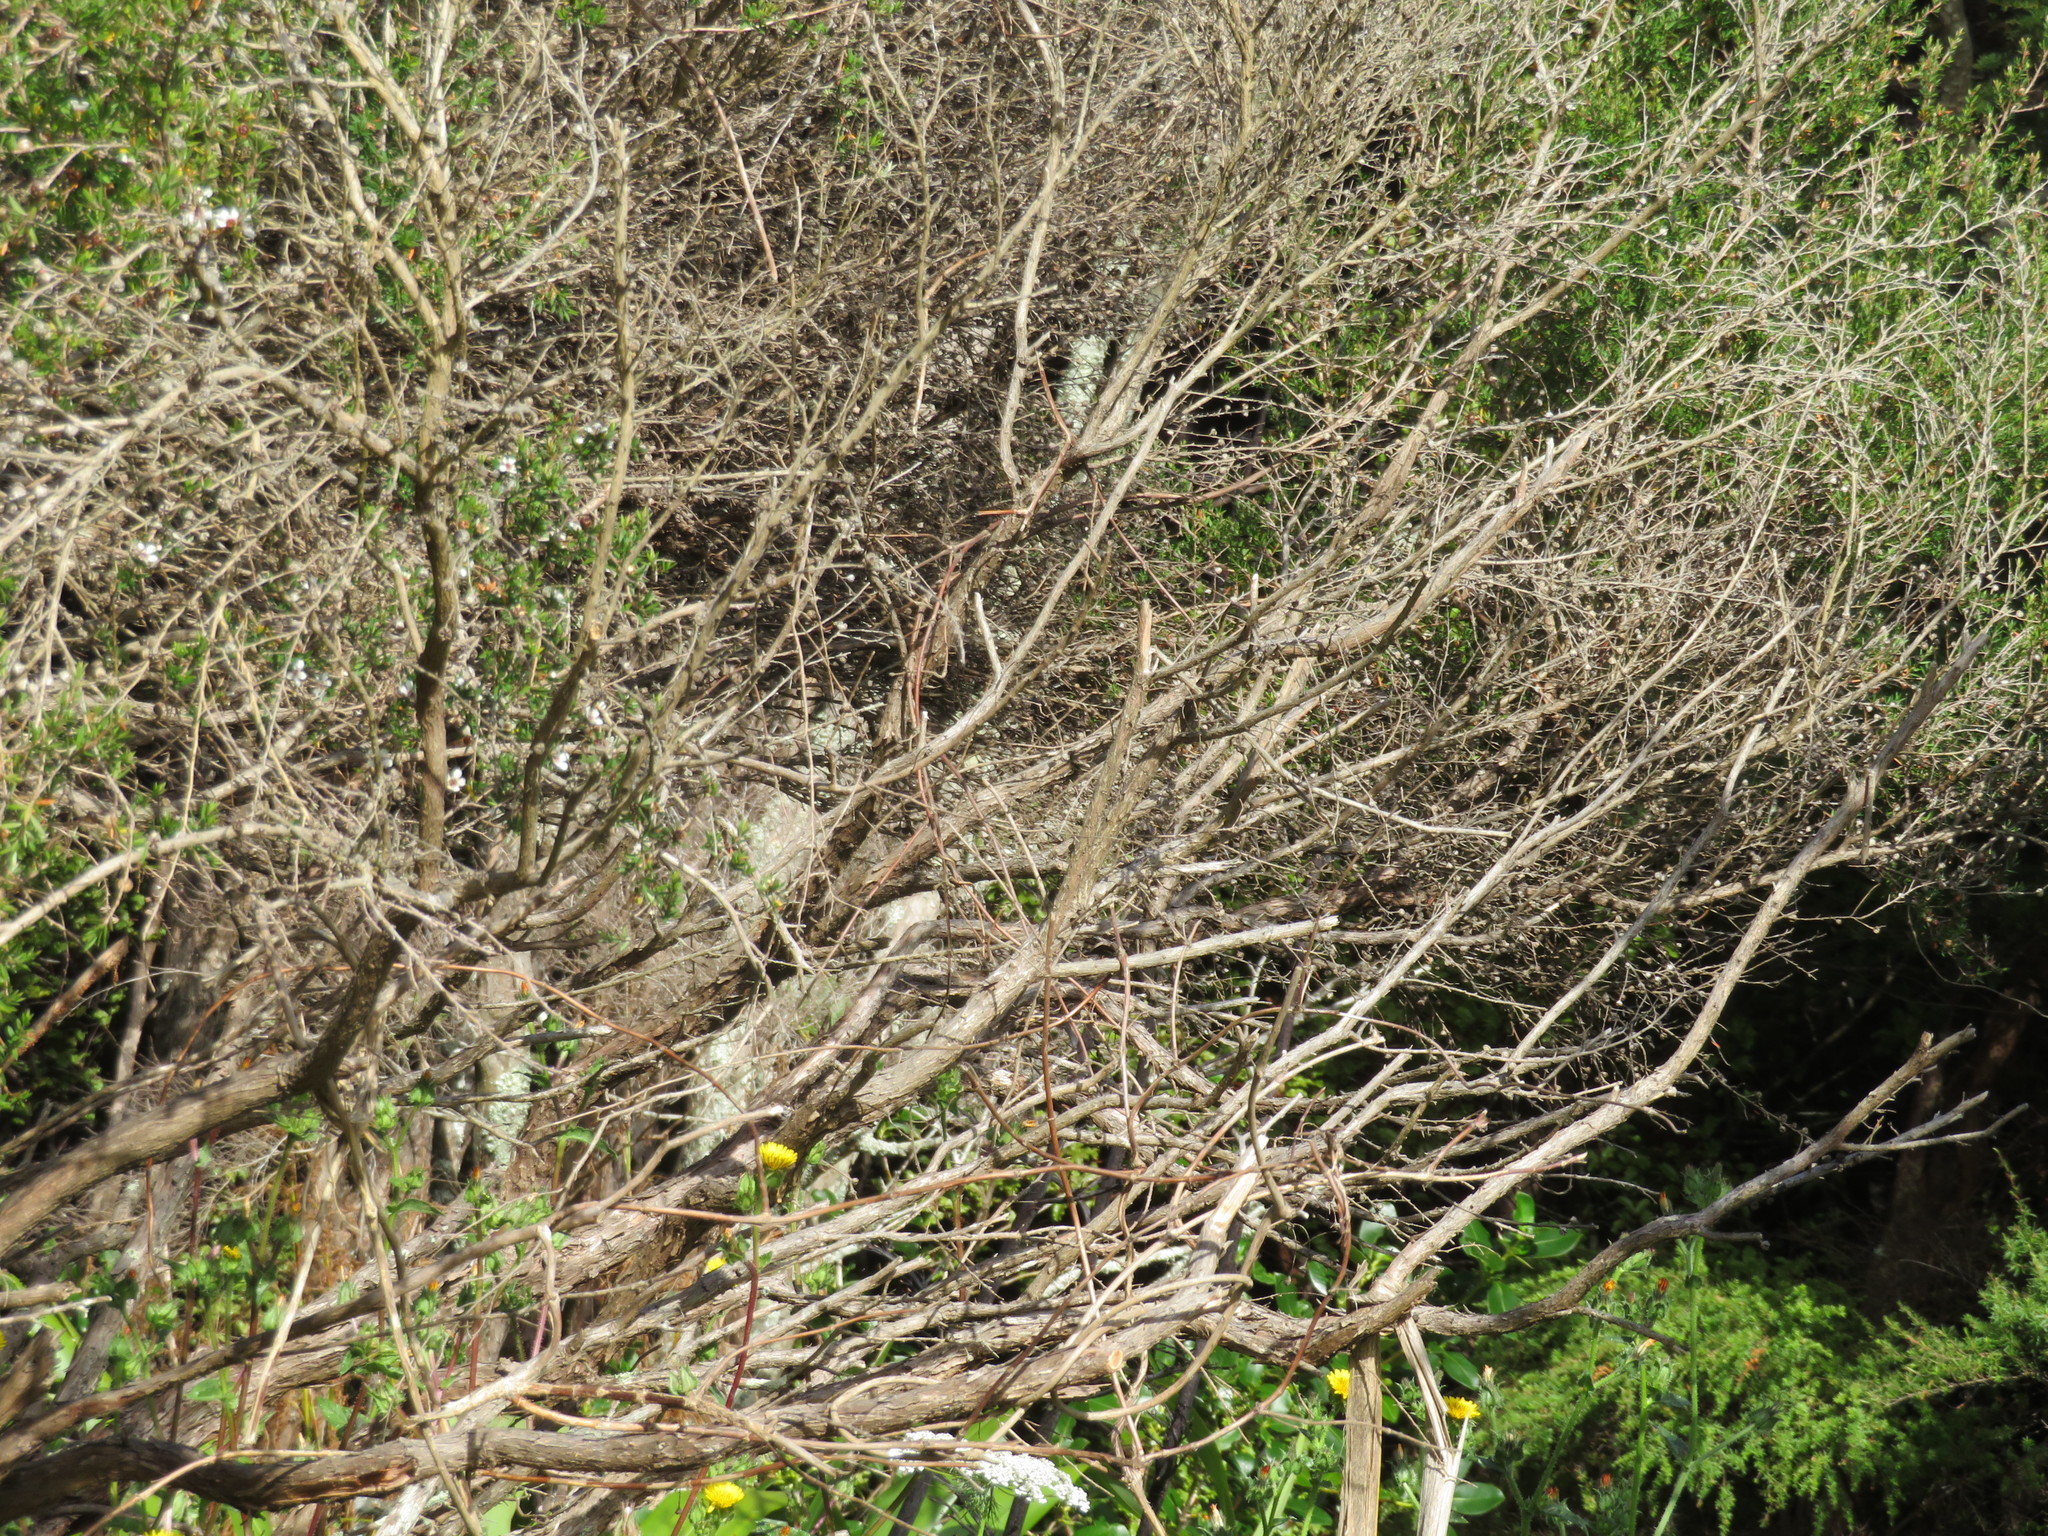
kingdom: Plantae
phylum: Tracheophyta
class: Magnoliopsida
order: Myrtales
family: Myrtaceae
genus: Leptospermum
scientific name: Leptospermum scoparium
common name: Broom tea-tree
